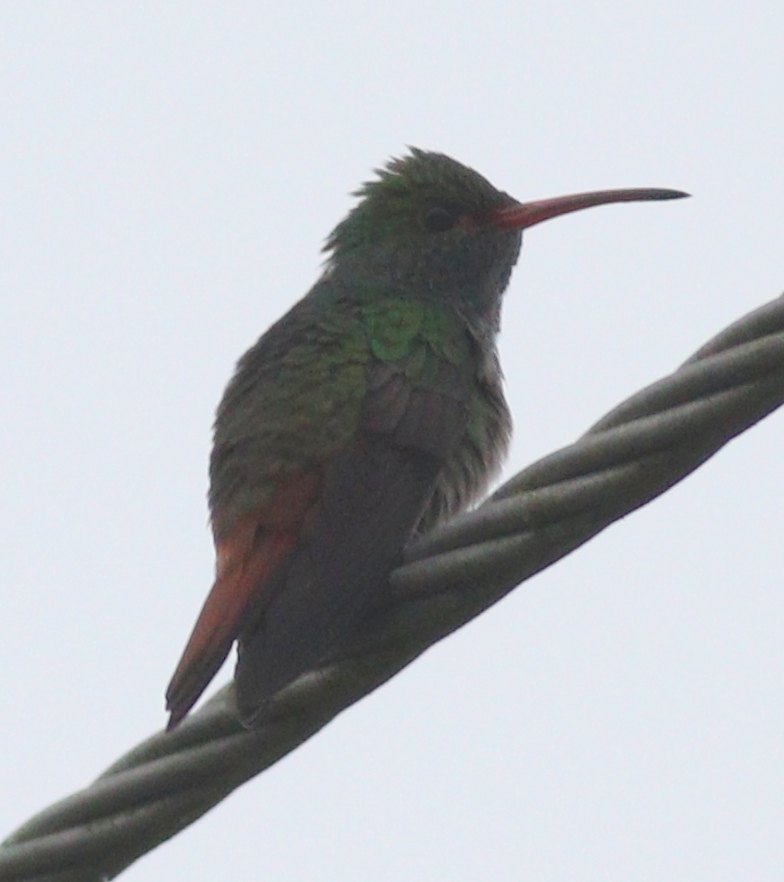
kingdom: Animalia
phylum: Chordata
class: Aves
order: Apodiformes
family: Trochilidae
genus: Amazilia
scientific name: Amazilia tzacatl
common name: Rufous-tailed hummingbird
